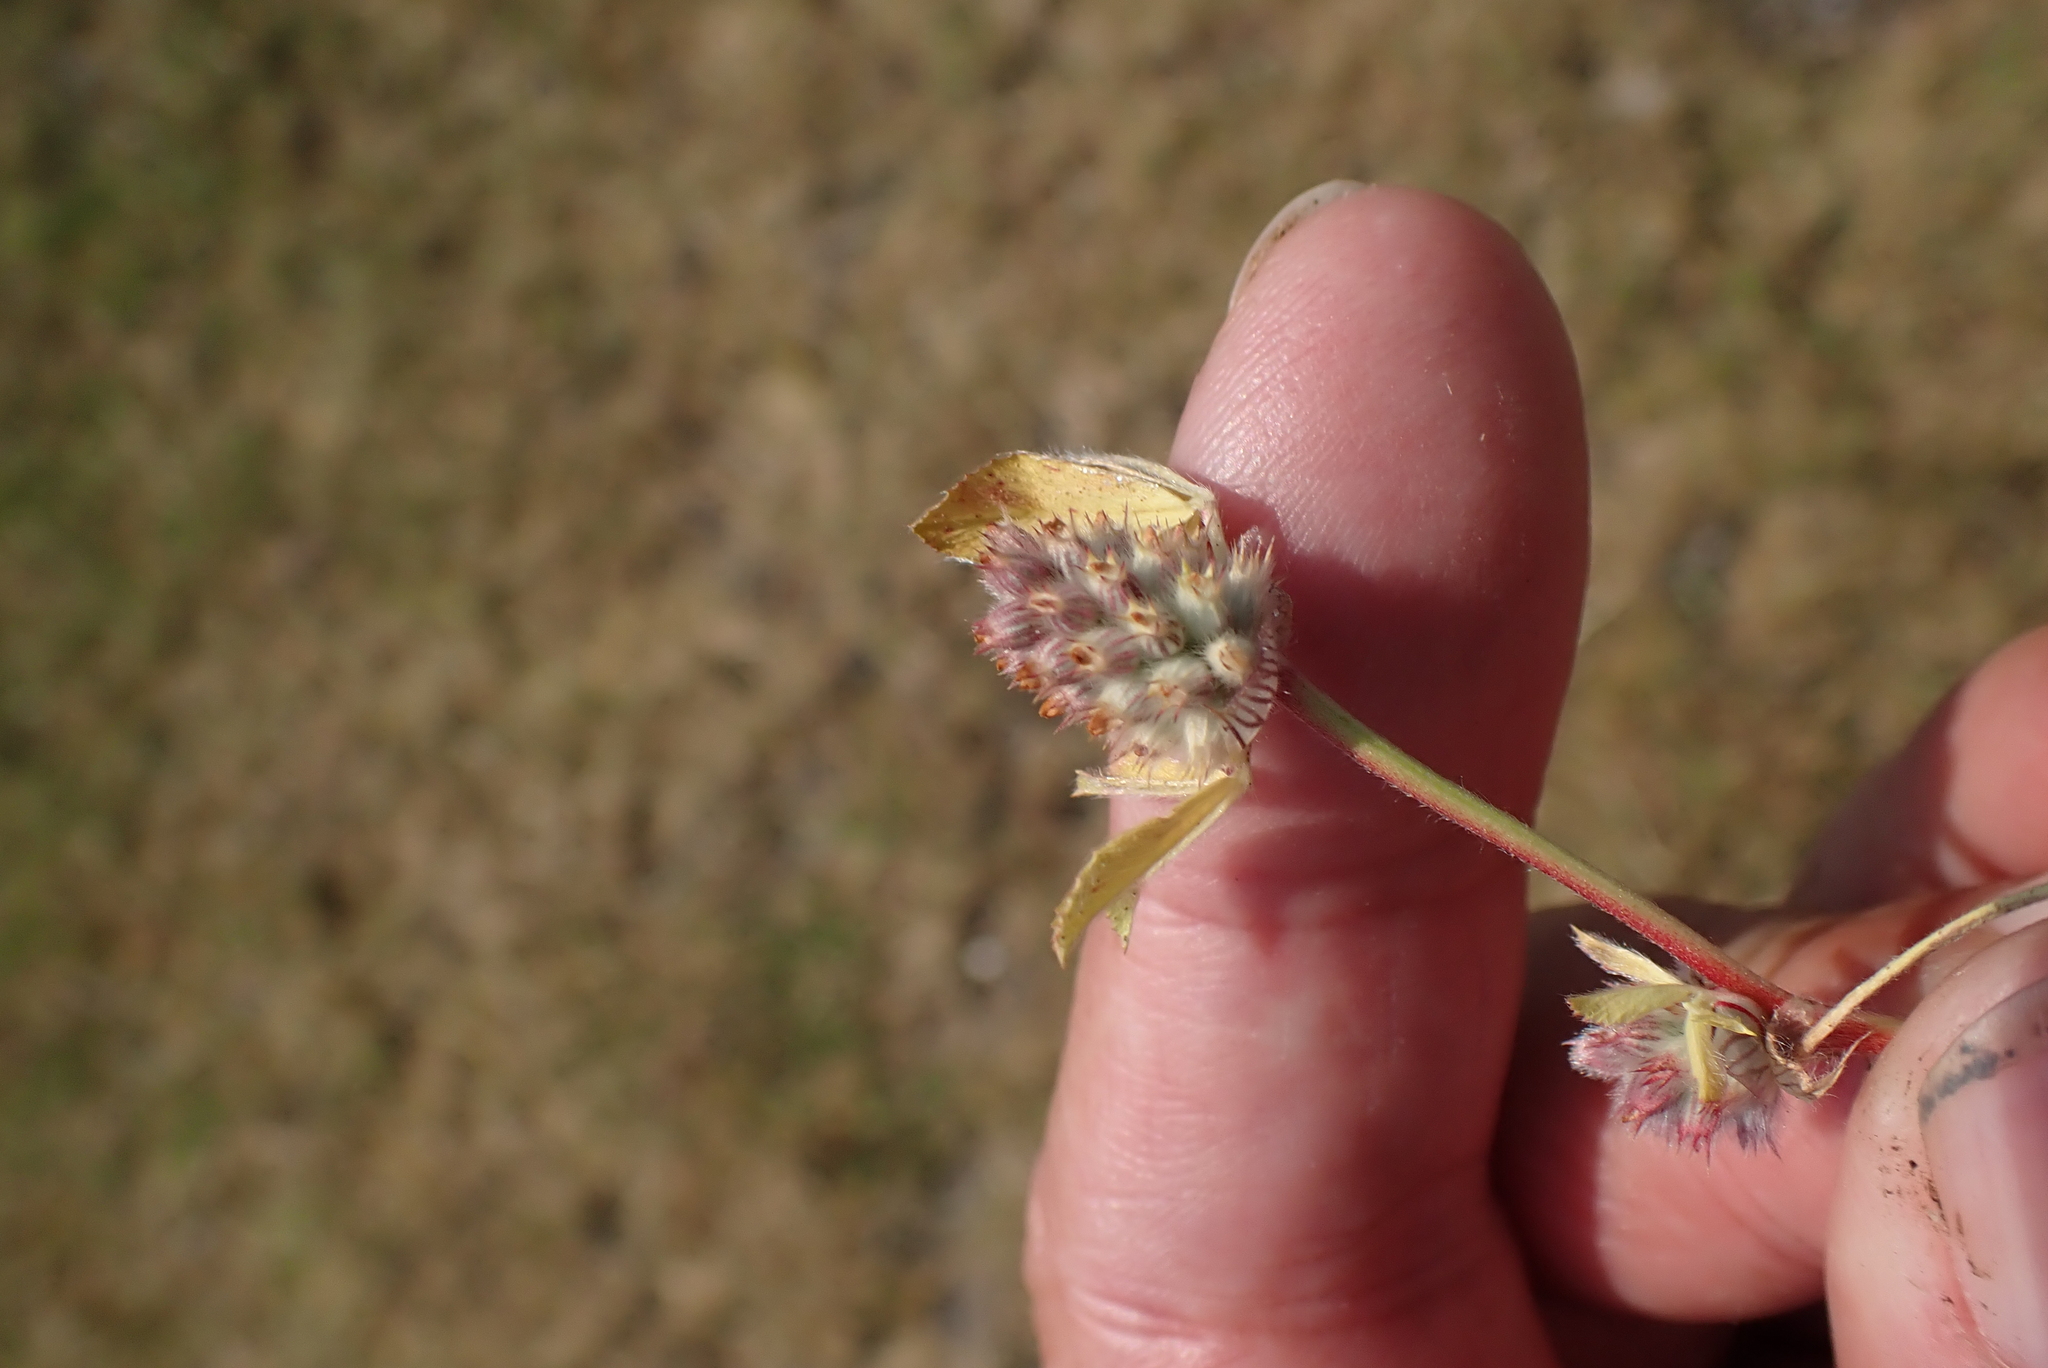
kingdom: Plantae
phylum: Tracheophyta
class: Magnoliopsida
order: Fabales
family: Fabaceae
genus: Trifolium
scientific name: Trifolium striatum
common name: Knotted clover
